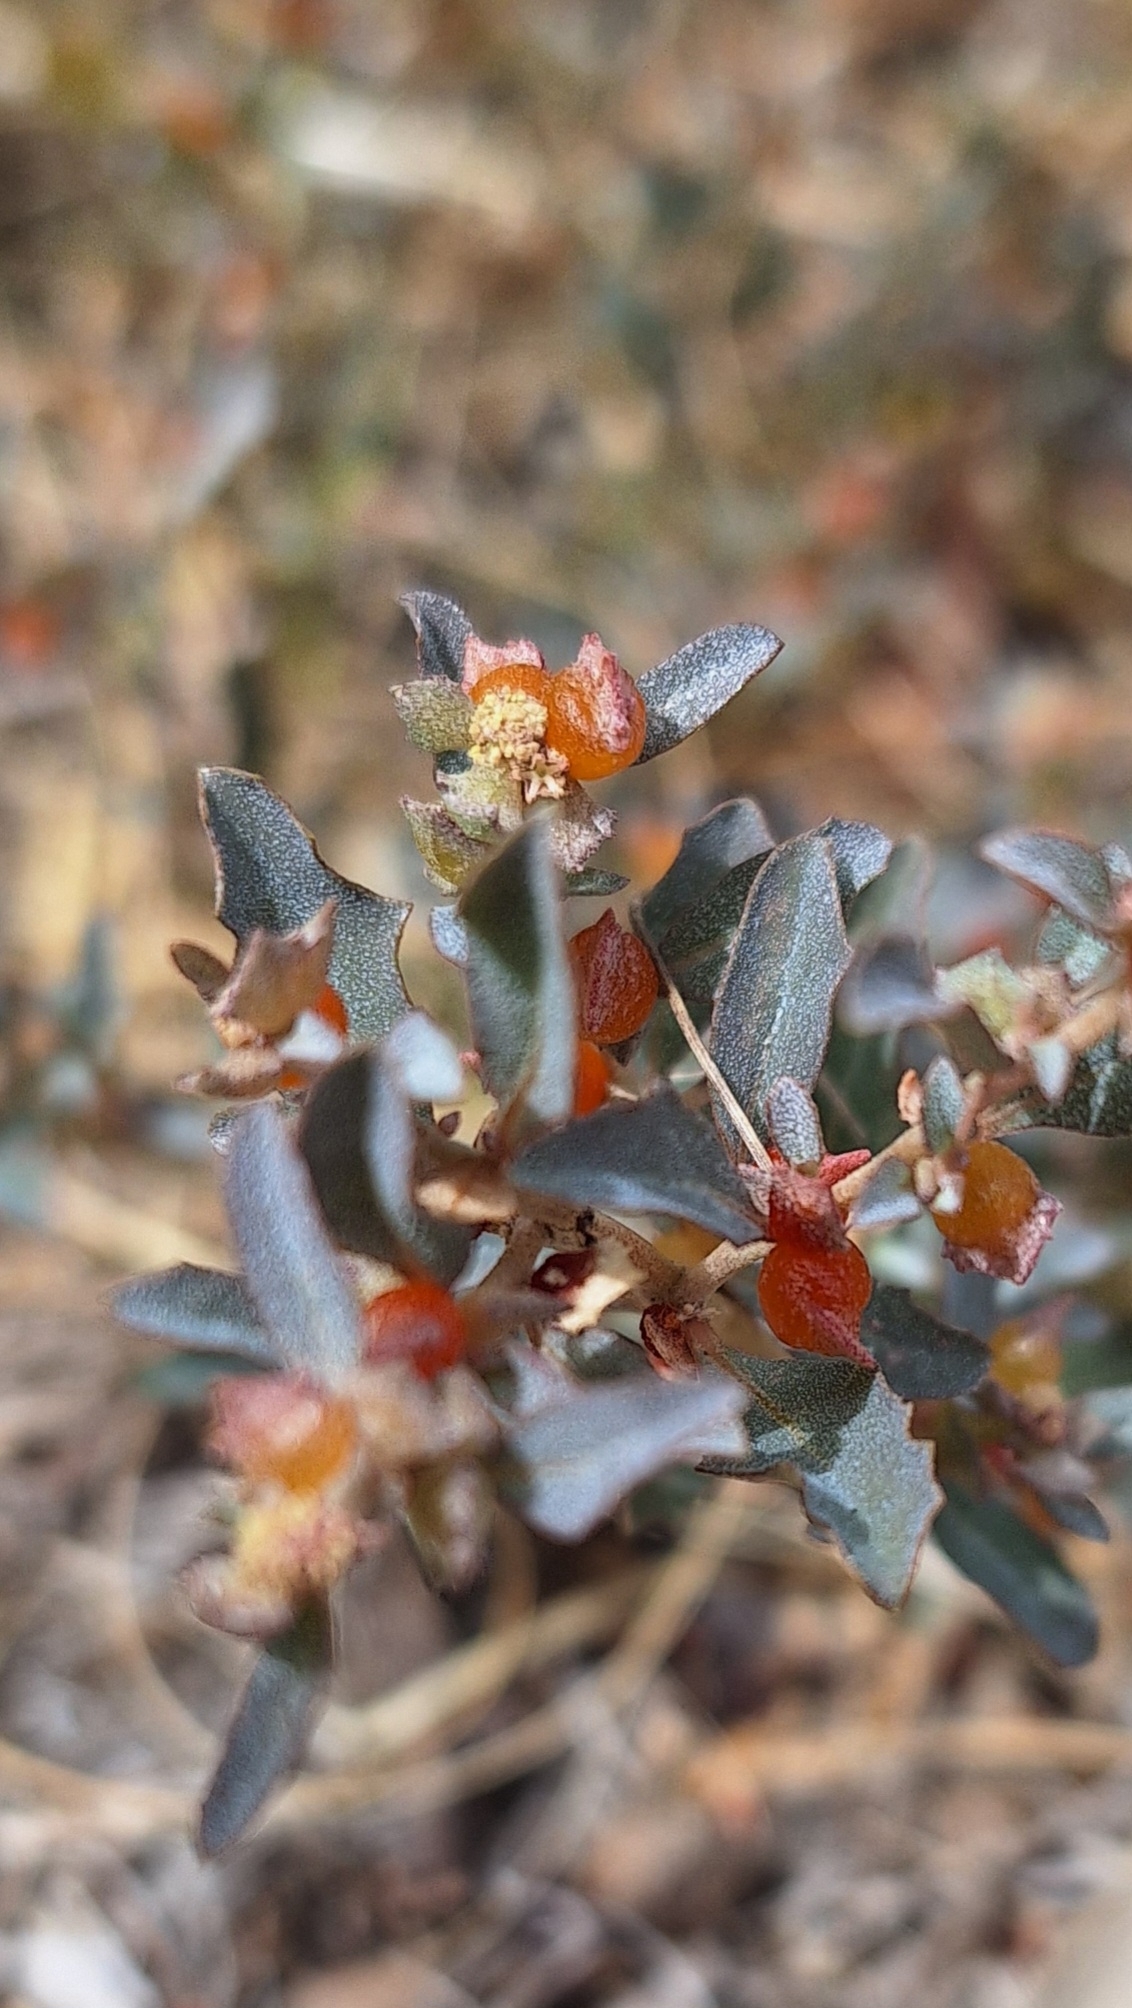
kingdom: Plantae
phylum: Tracheophyta
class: Magnoliopsida
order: Caryophyllales
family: Amaranthaceae
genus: Atriplex
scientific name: Atriplex semibaccata
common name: Australian saltbush
